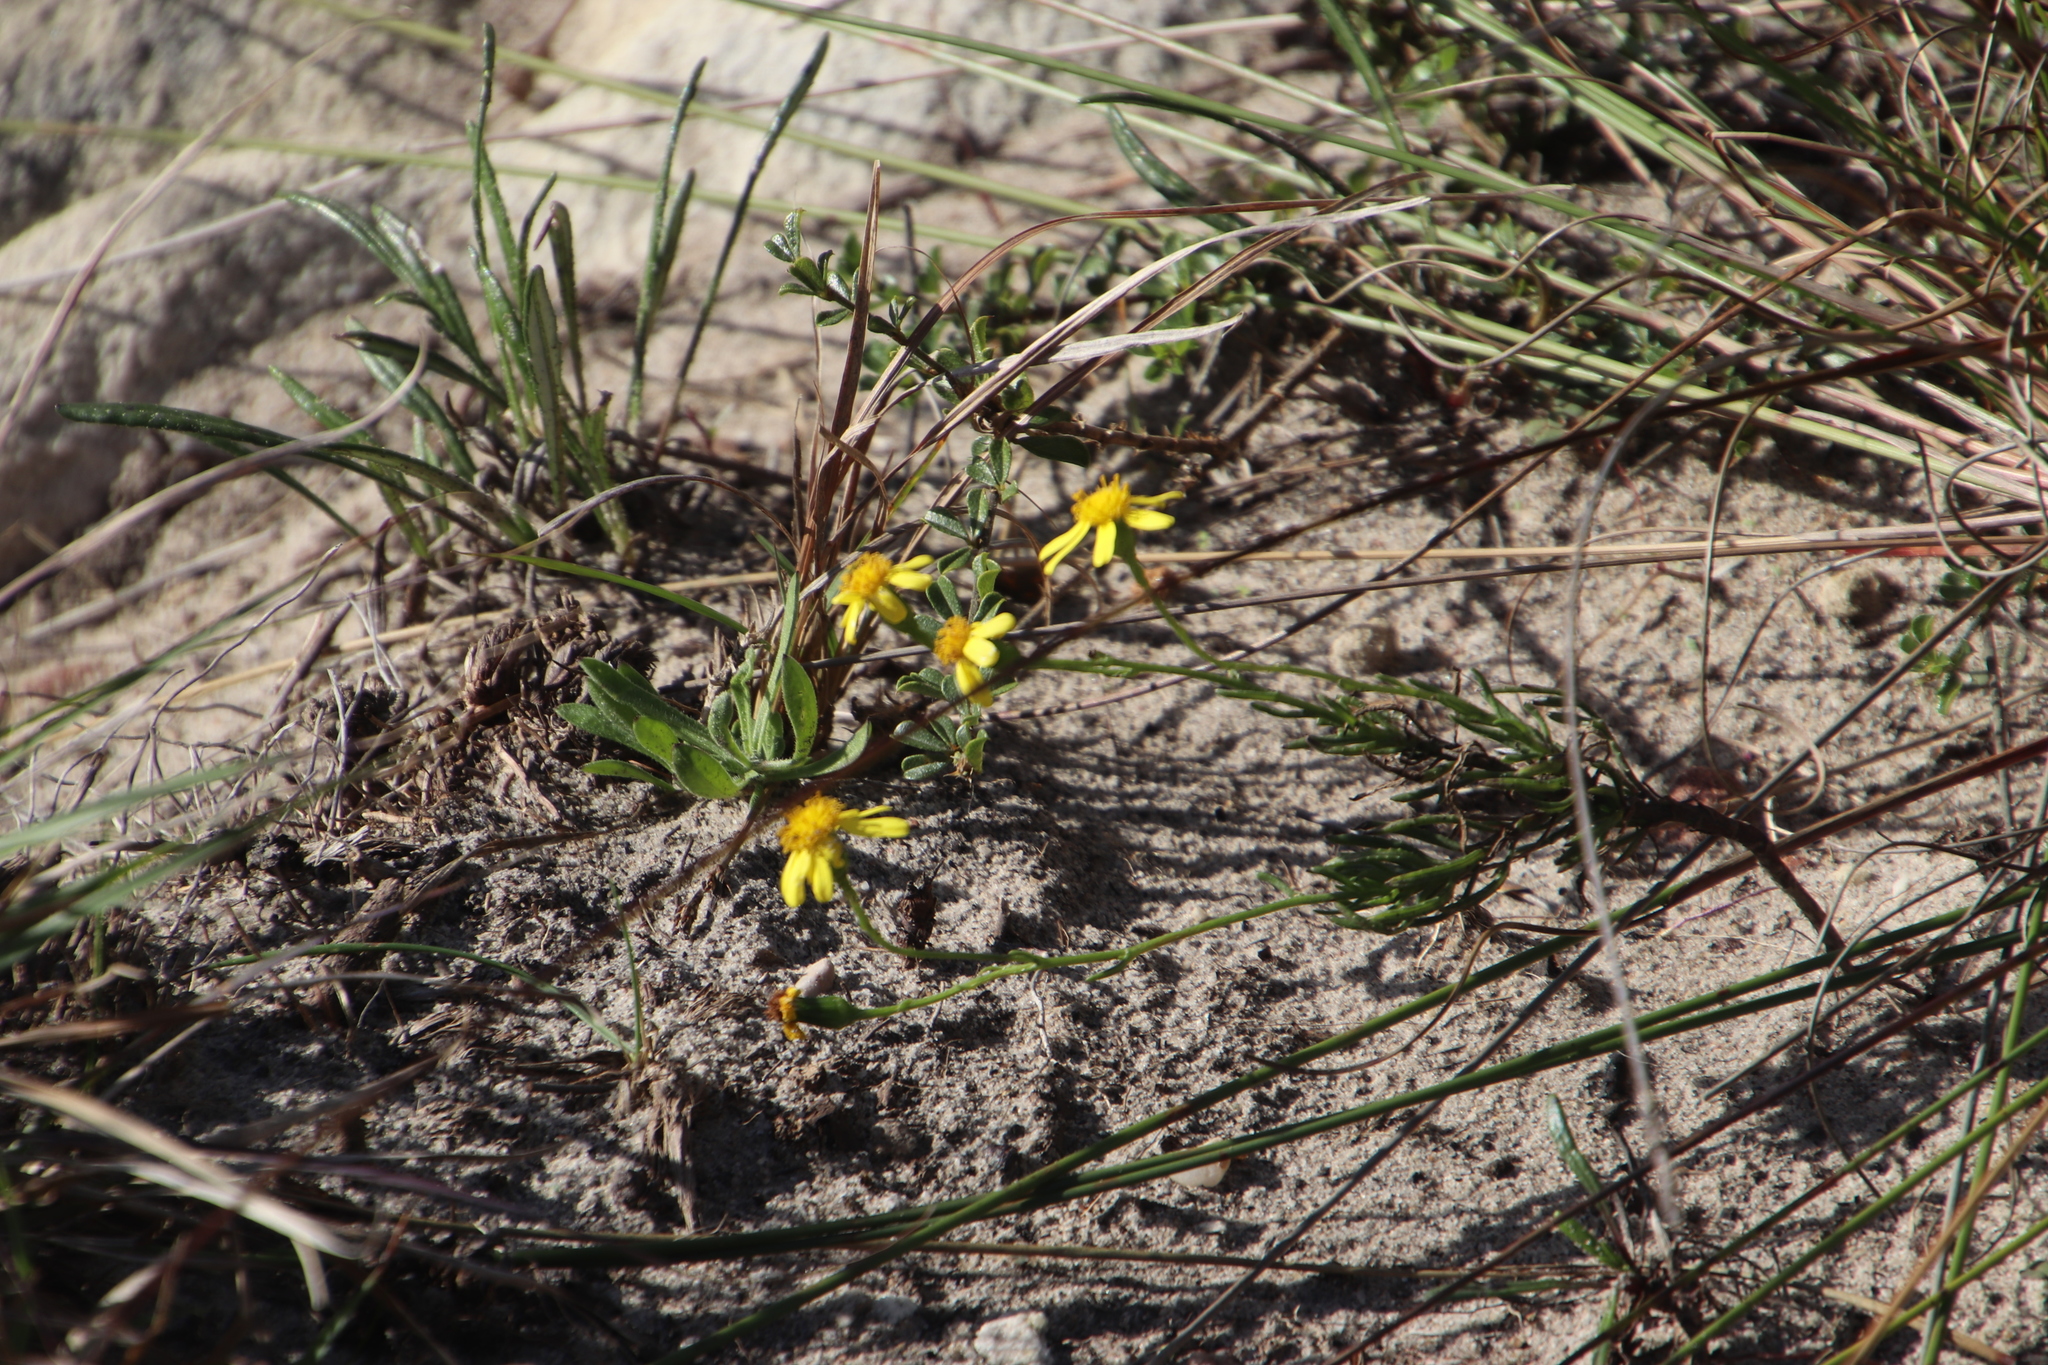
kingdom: Plantae
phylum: Tracheophyta
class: Magnoliopsida
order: Asterales
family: Asteraceae
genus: Senecio
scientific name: Senecio burchellii
